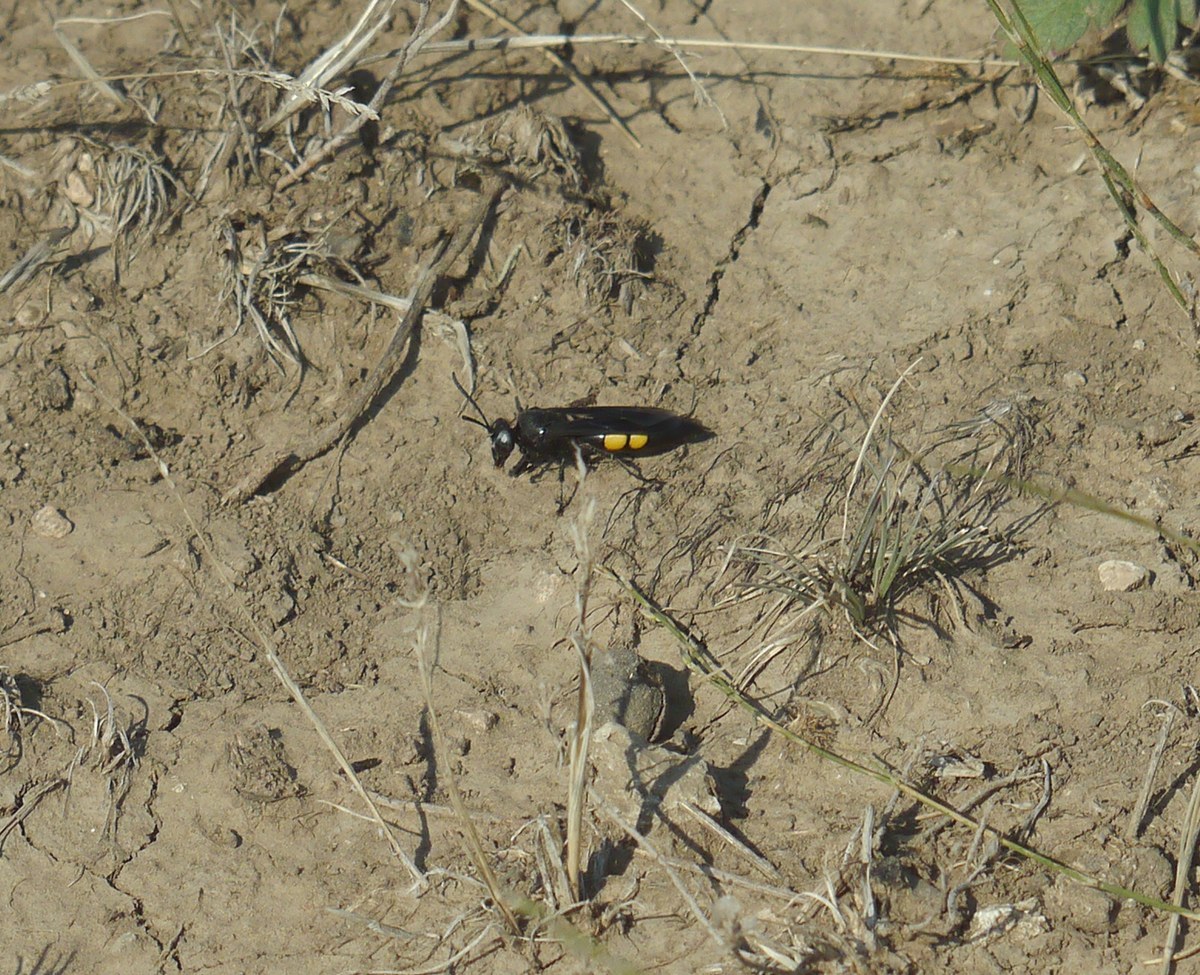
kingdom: Animalia
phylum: Arthropoda
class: Insecta
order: Hymenoptera
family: Crabronidae
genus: Stizoides
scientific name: Stizoides tridentatus
